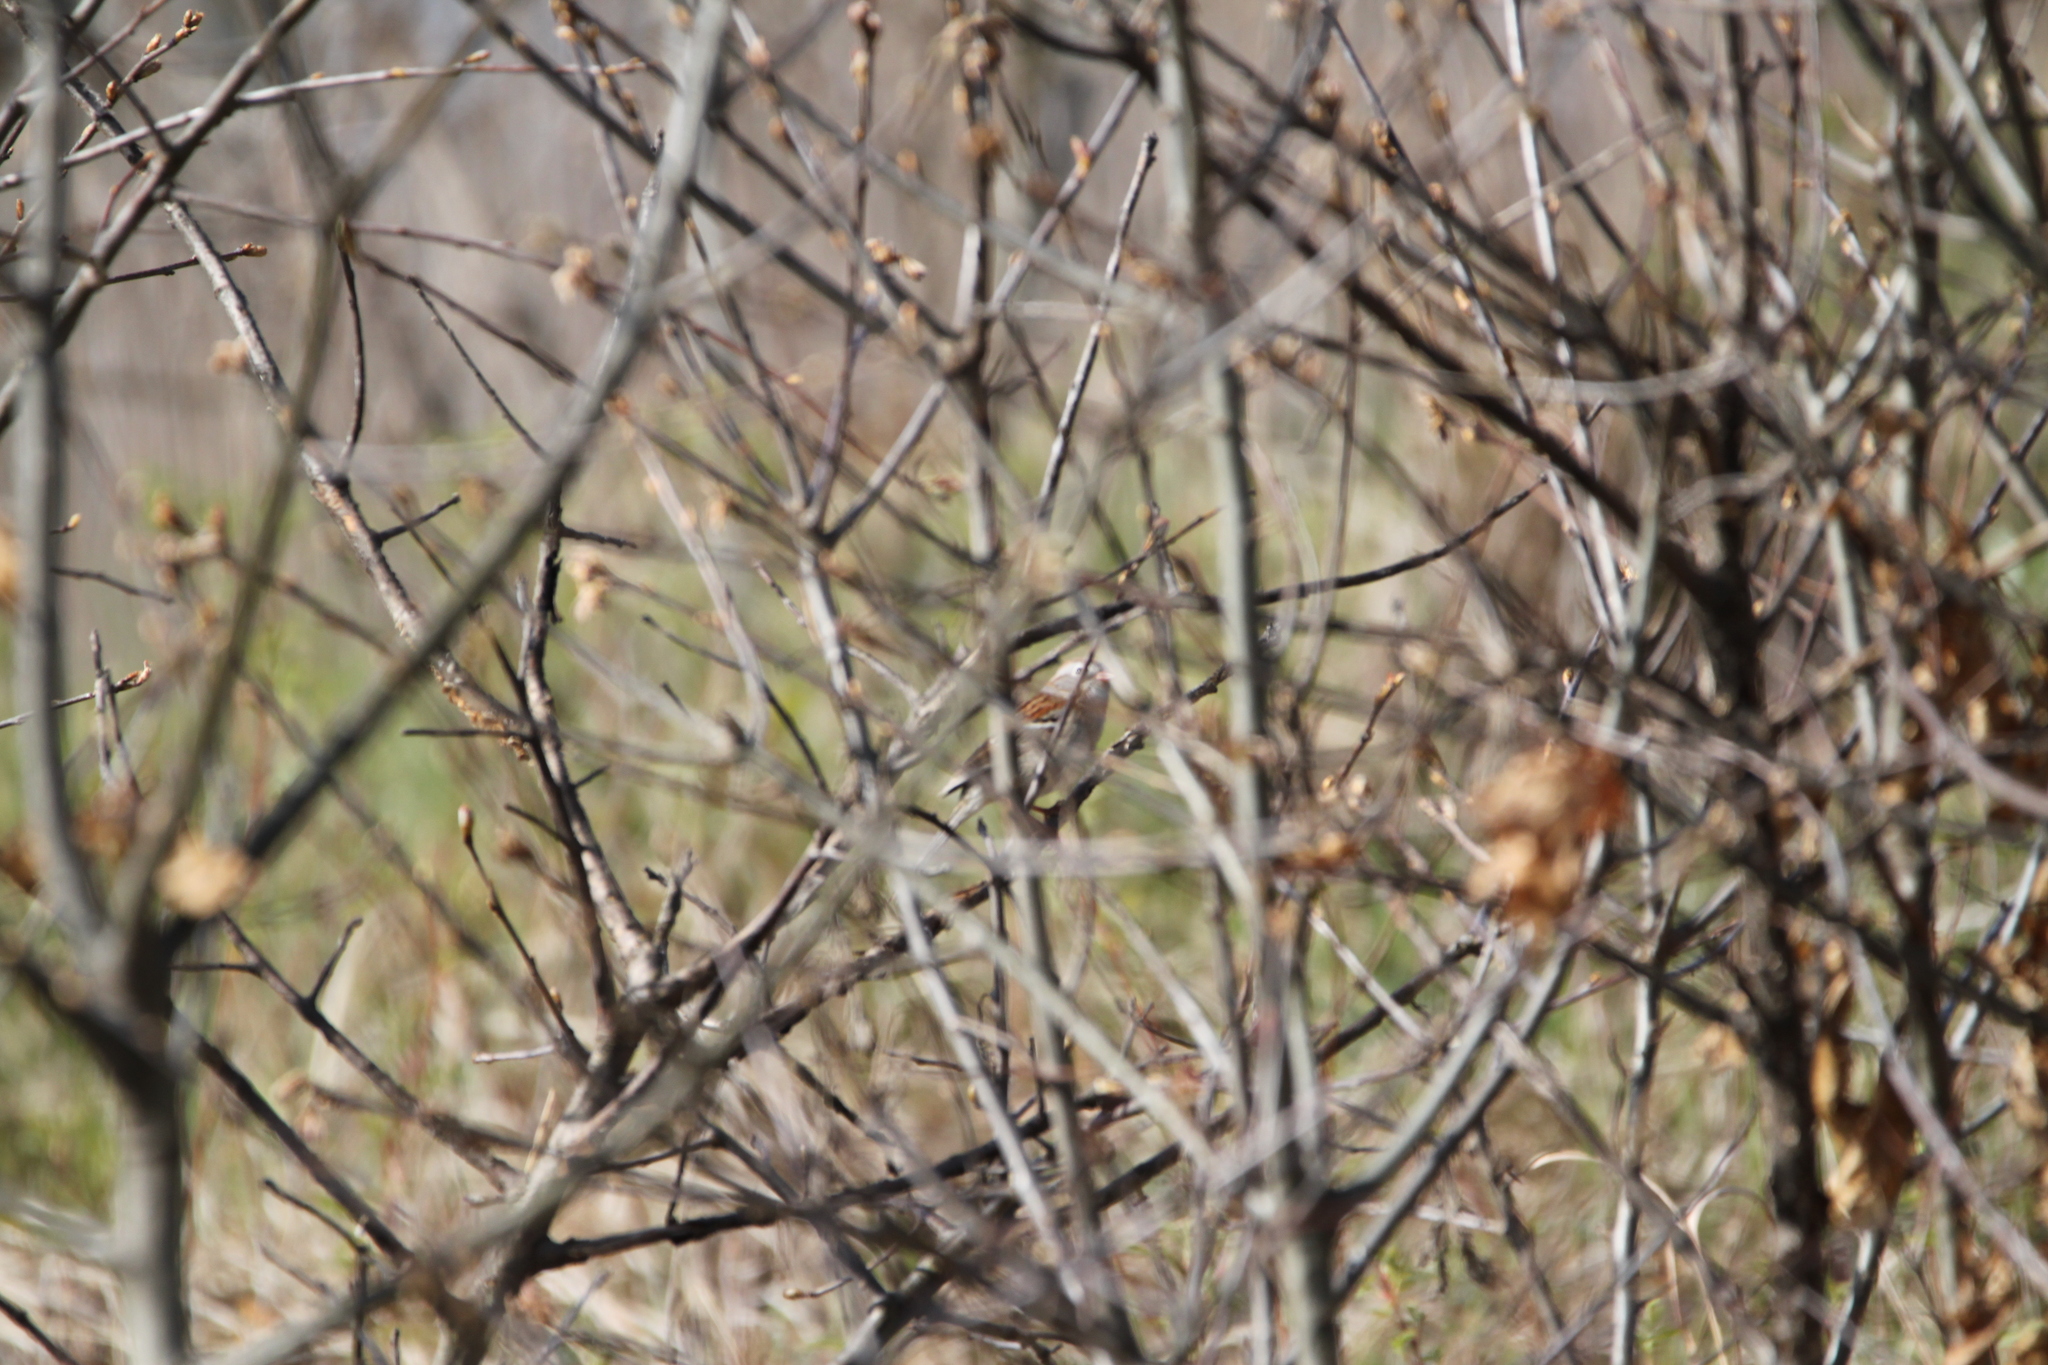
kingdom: Animalia
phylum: Chordata
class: Aves
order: Passeriformes
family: Passerellidae
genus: Spizella
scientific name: Spizella pusilla
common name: Field sparrow
